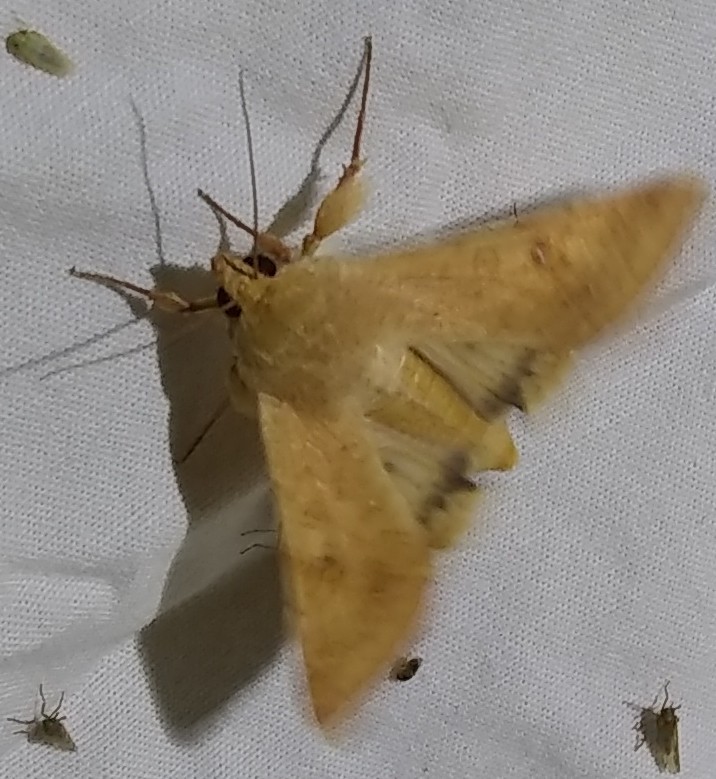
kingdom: Animalia
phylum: Arthropoda
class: Insecta
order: Lepidoptera
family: Noctuidae
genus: Helicoverpa
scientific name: Helicoverpa zea
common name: Bollworm
